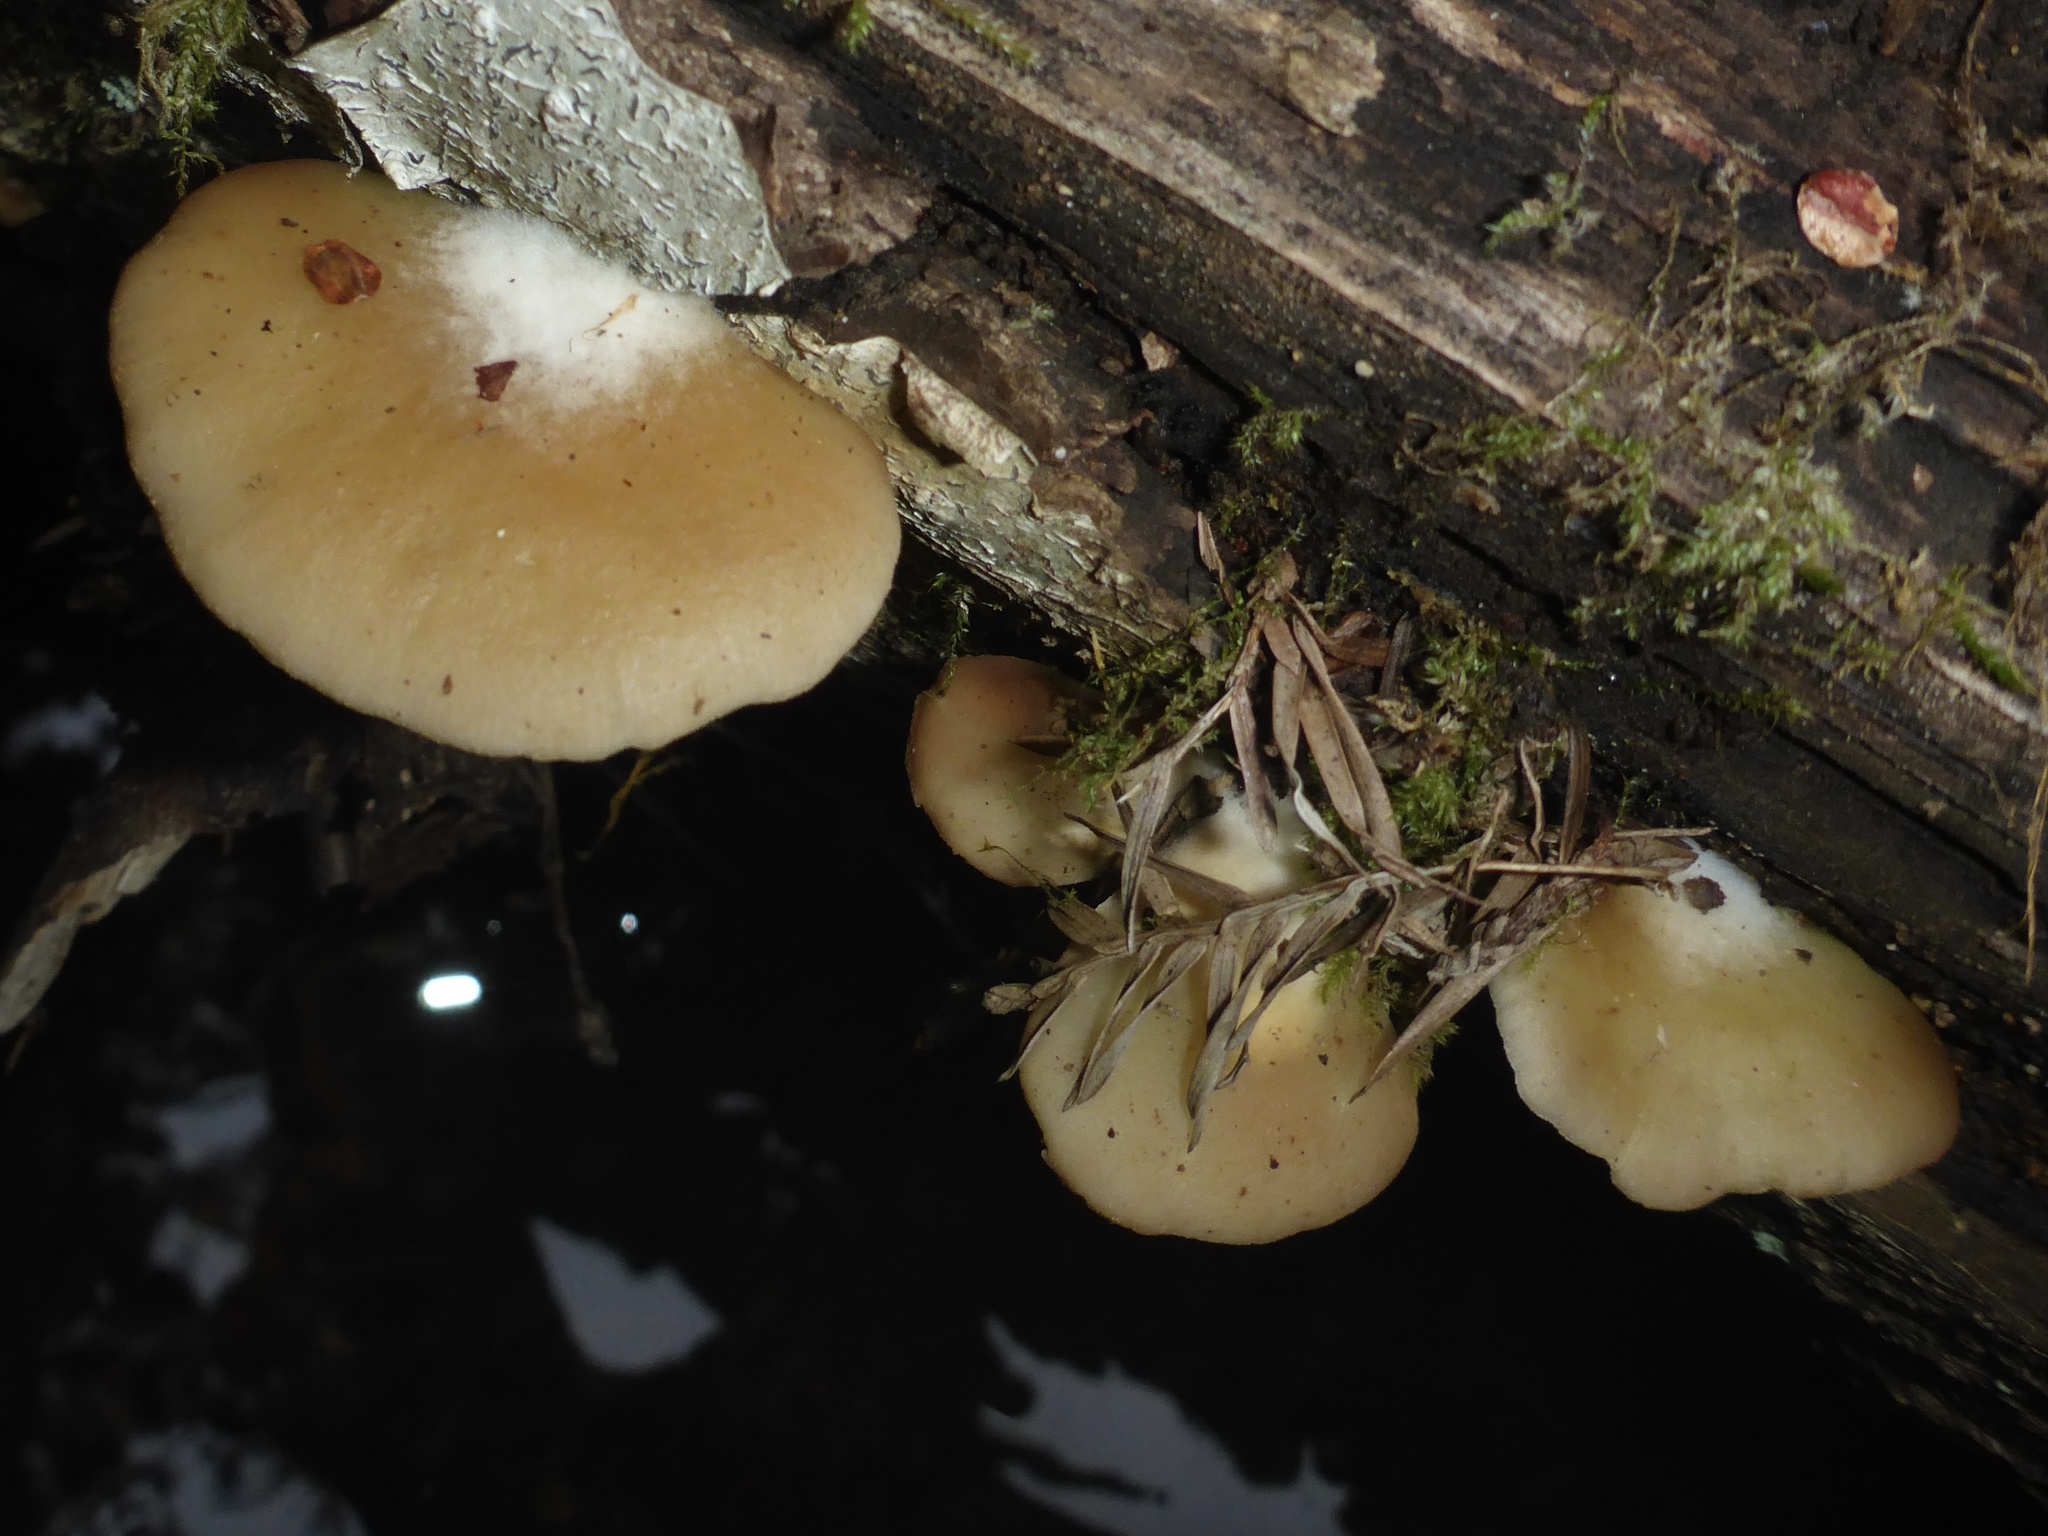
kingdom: Fungi
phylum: Basidiomycota
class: Agaricomycetes
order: Agaricales
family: Crepidotaceae
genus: Crepidotus
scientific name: Crepidotus applanatus
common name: Flat crep
